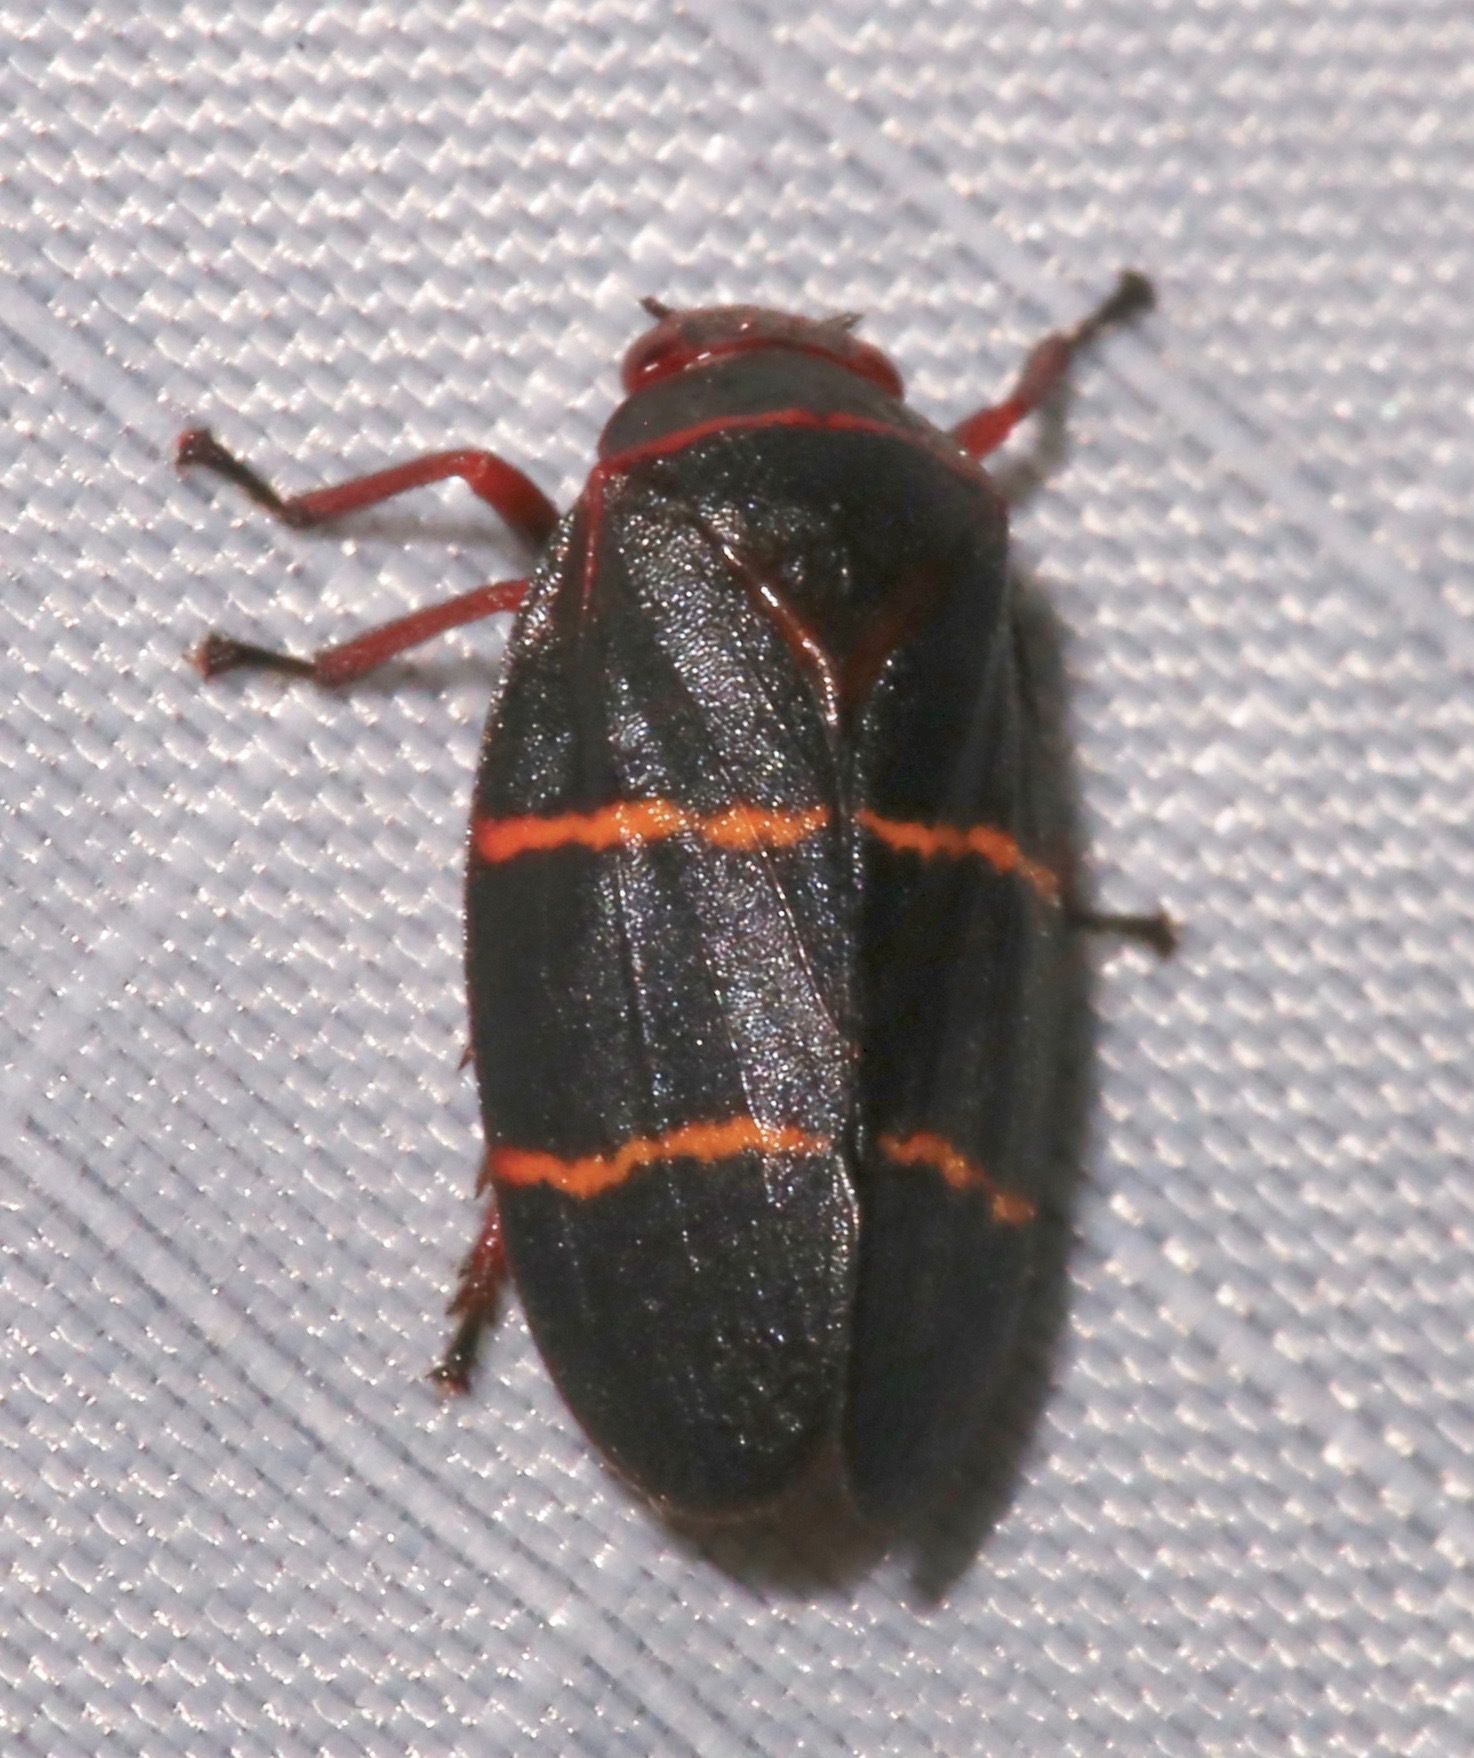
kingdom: Animalia
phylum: Arthropoda
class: Insecta
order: Hemiptera
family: Cercopidae
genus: Prosapia
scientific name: Prosapia bicincta
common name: Twolined spittlebug
